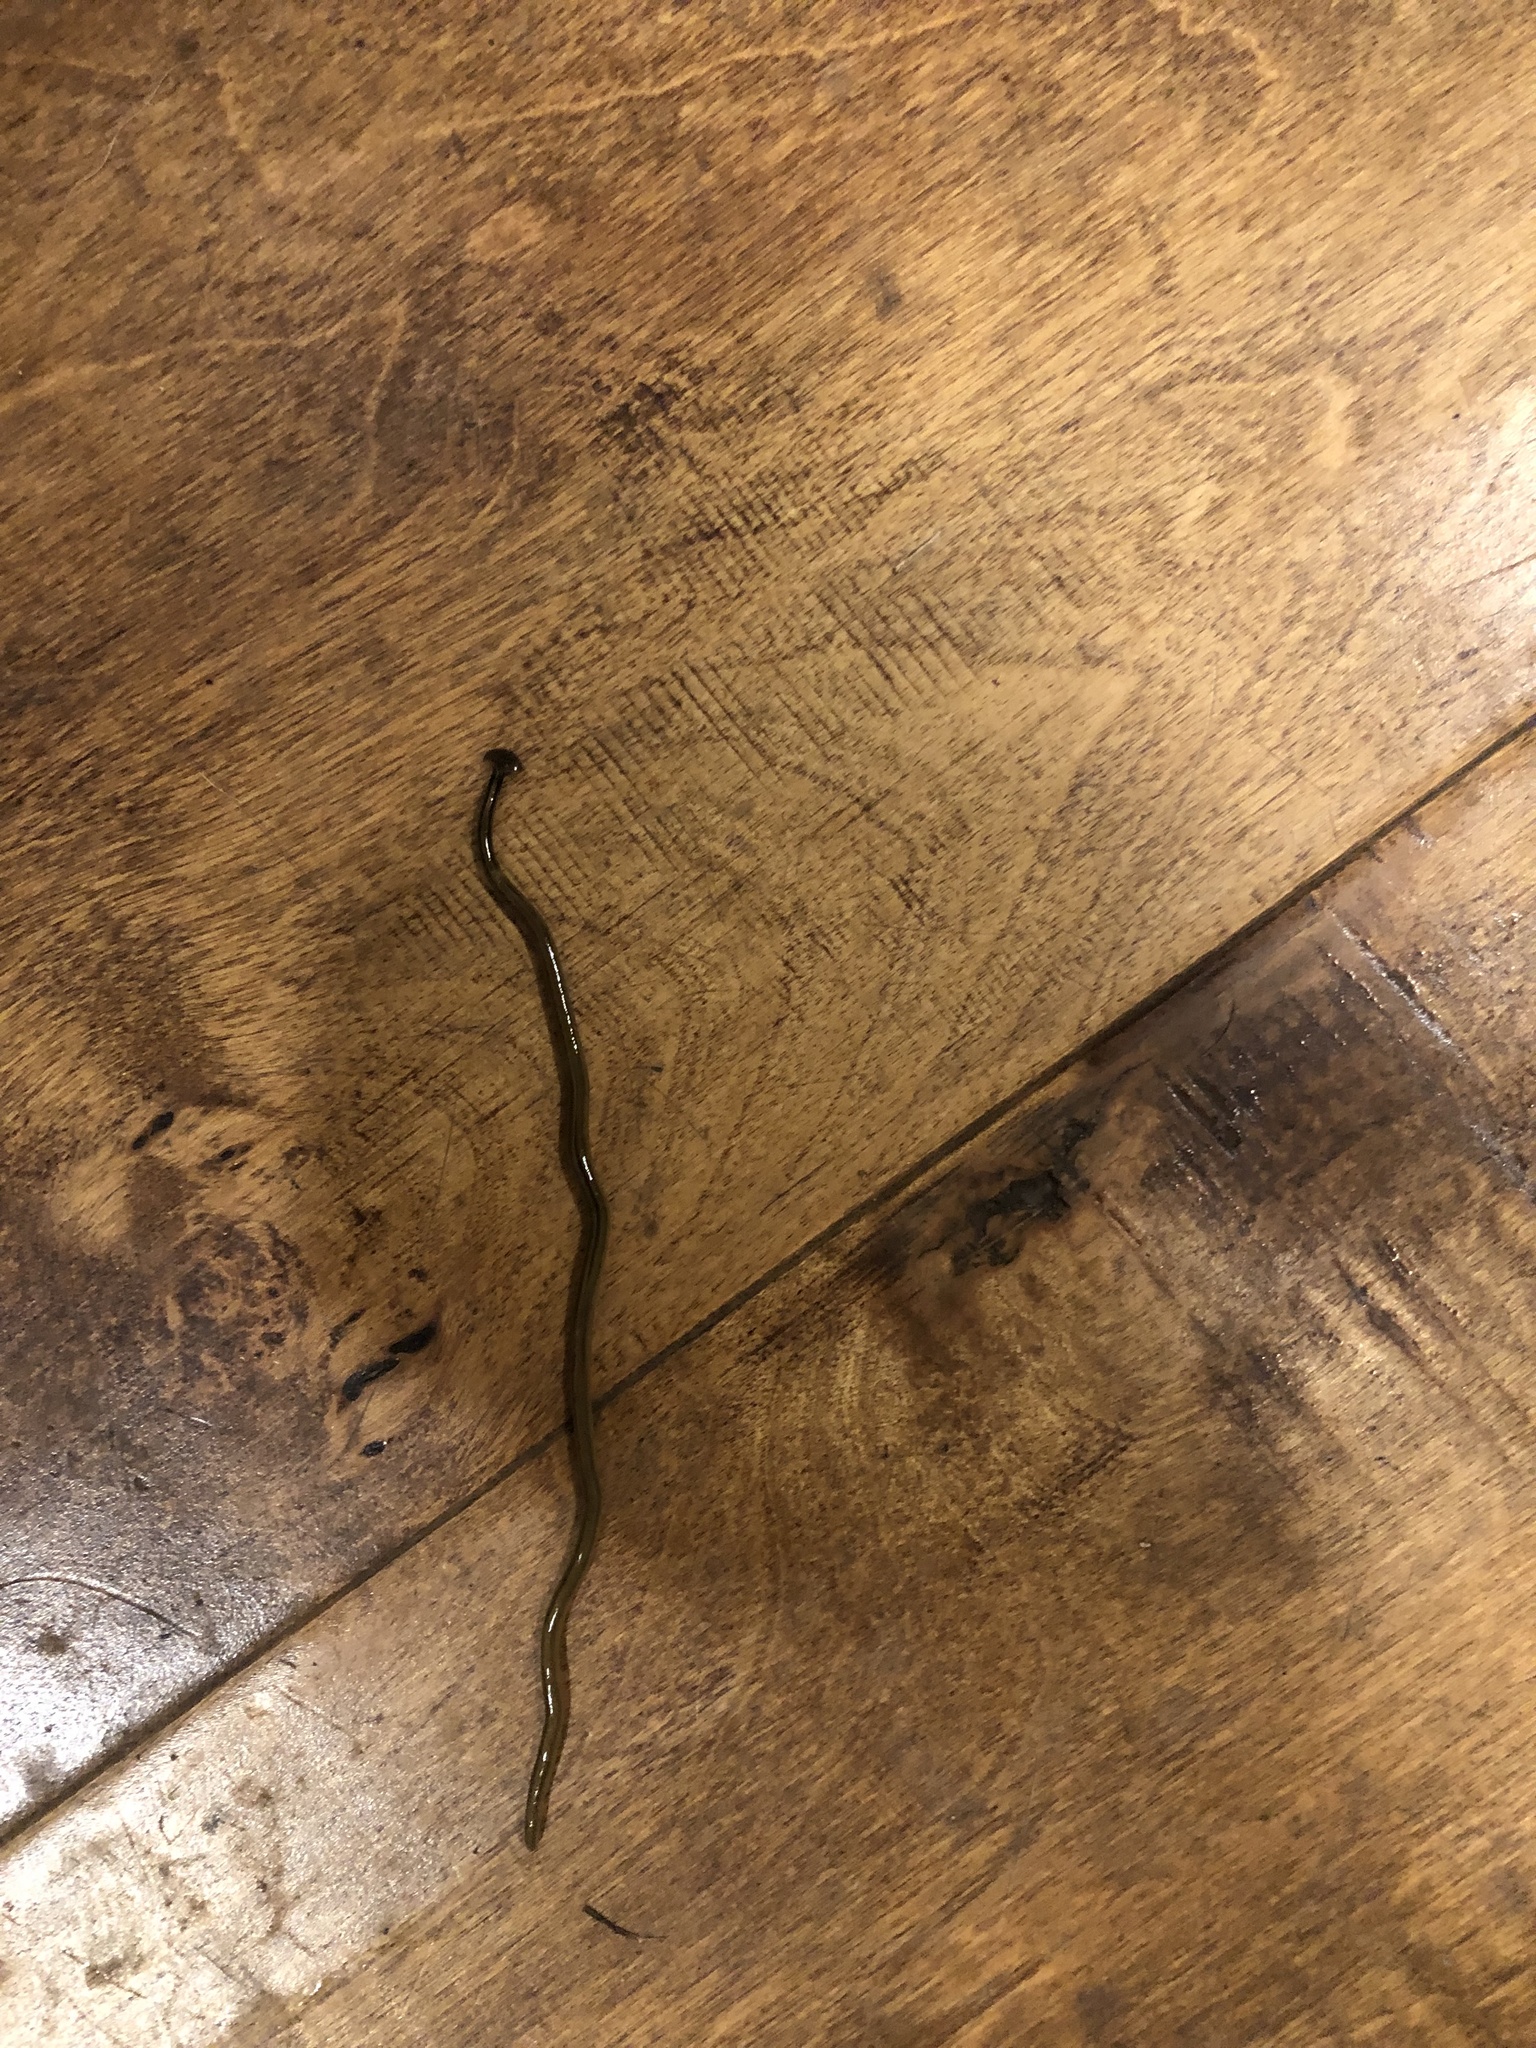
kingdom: Animalia
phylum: Platyhelminthes
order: Tricladida
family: Geoplanidae
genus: Bipalium
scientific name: Bipalium kewense
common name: Hammerhead flatworm
